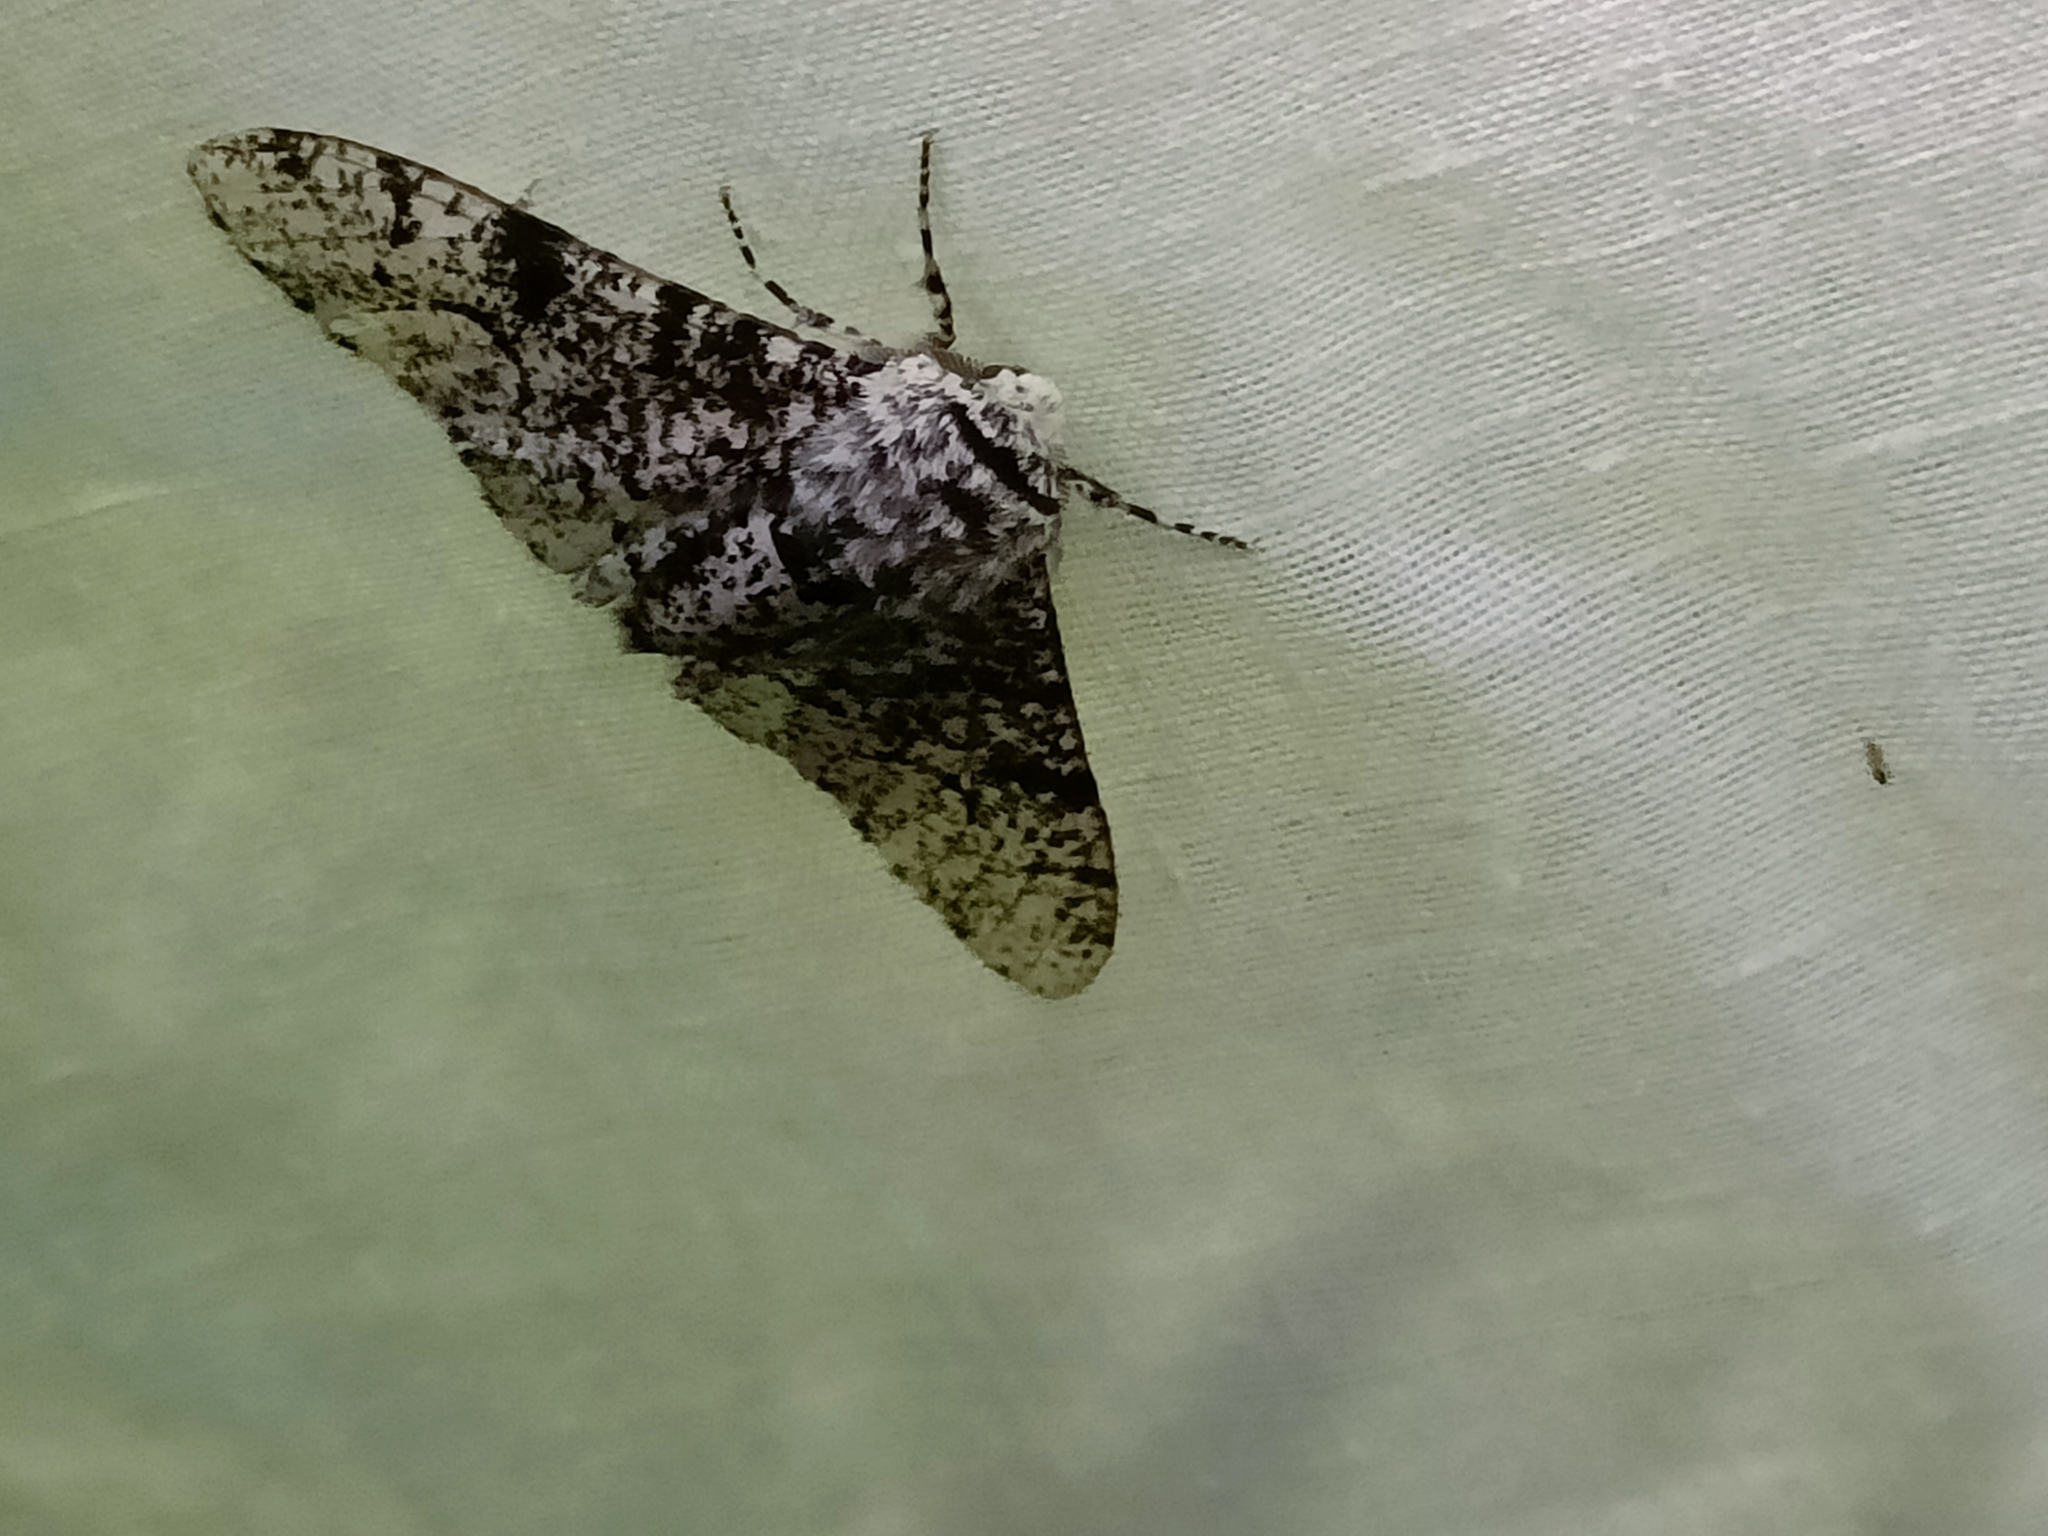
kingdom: Animalia
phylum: Arthropoda
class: Insecta
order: Lepidoptera
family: Geometridae
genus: Biston
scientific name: Biston betularia
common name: Peppered moth
